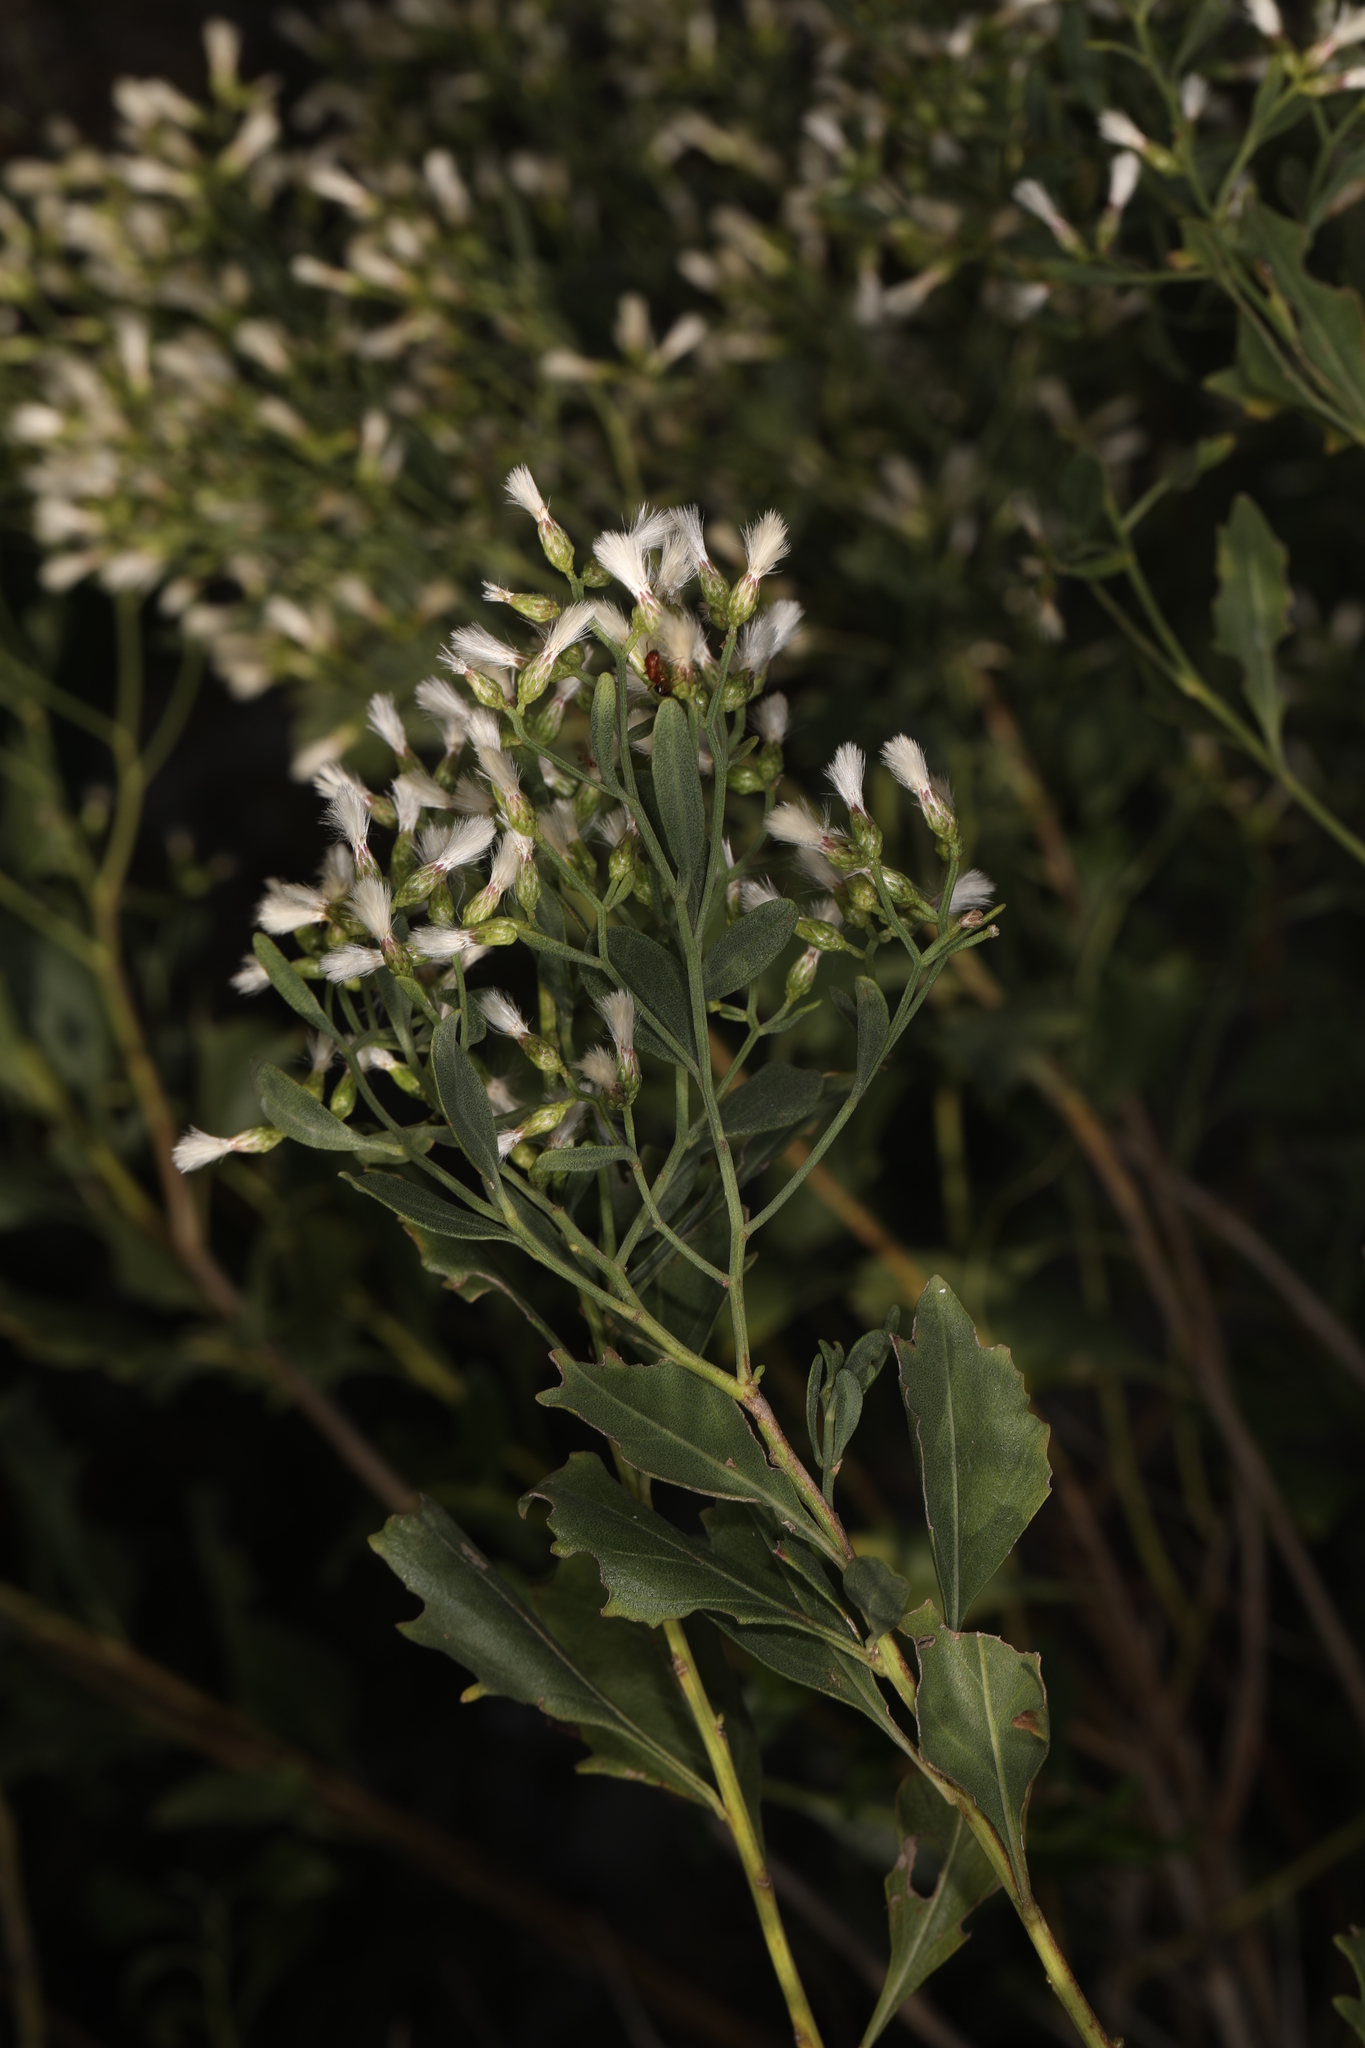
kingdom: Plantae
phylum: Tracheophyta
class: Magnoliopsida
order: Asterales
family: Asteraceae
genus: Baccharis
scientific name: Baccharis halimifolia
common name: Eastern baccharis
